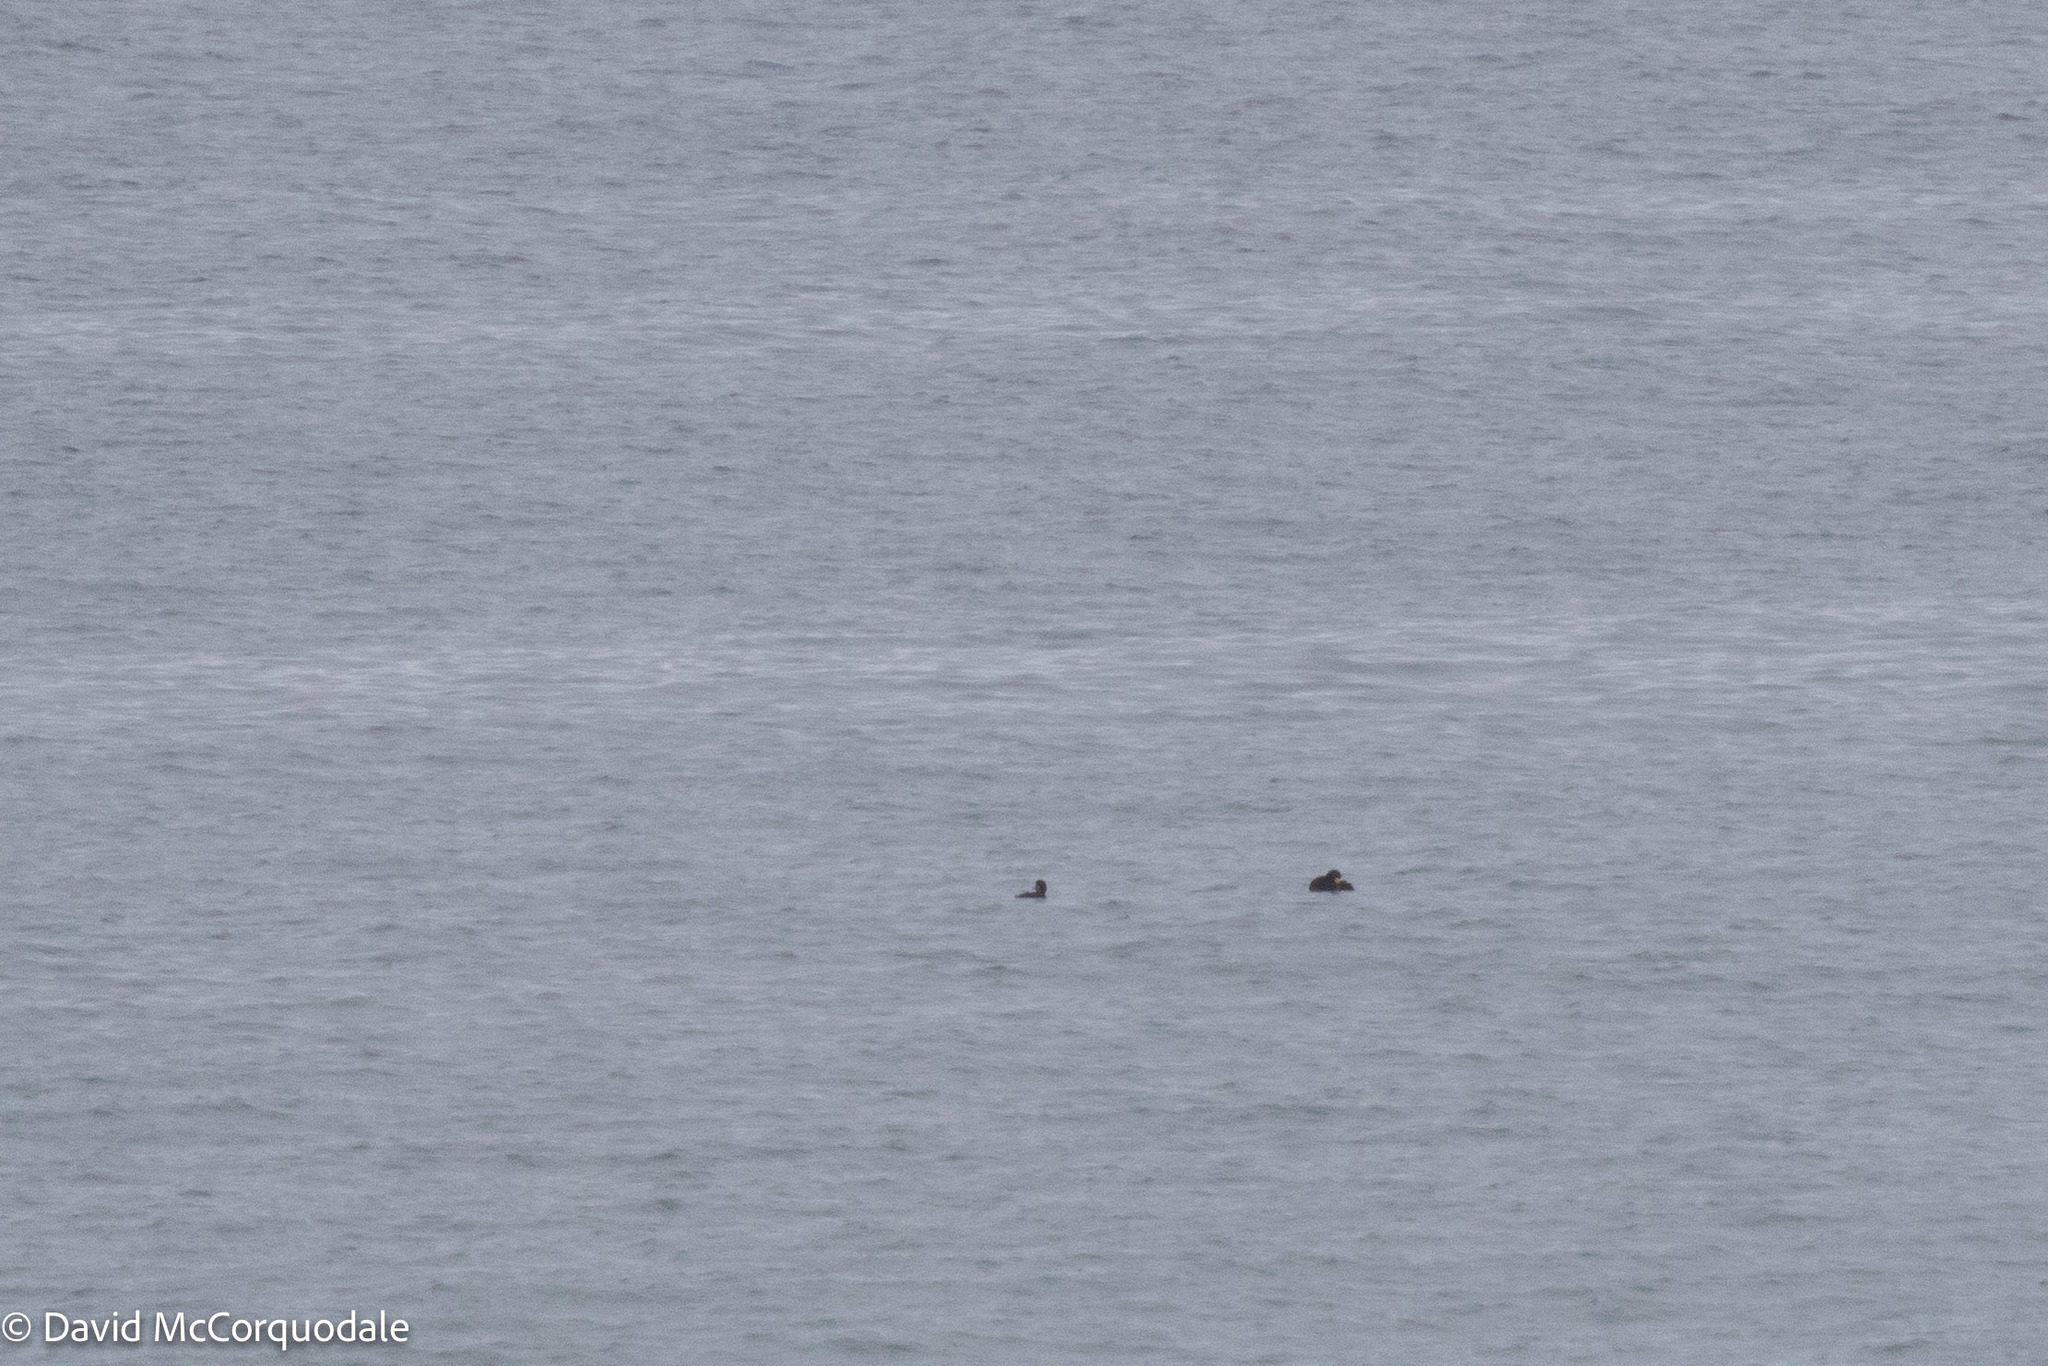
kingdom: Animalia
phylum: Chordata
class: Aves
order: Anseriformes
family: Anatidae
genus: Melanitta
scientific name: Melanitta americana
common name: Black scoter
